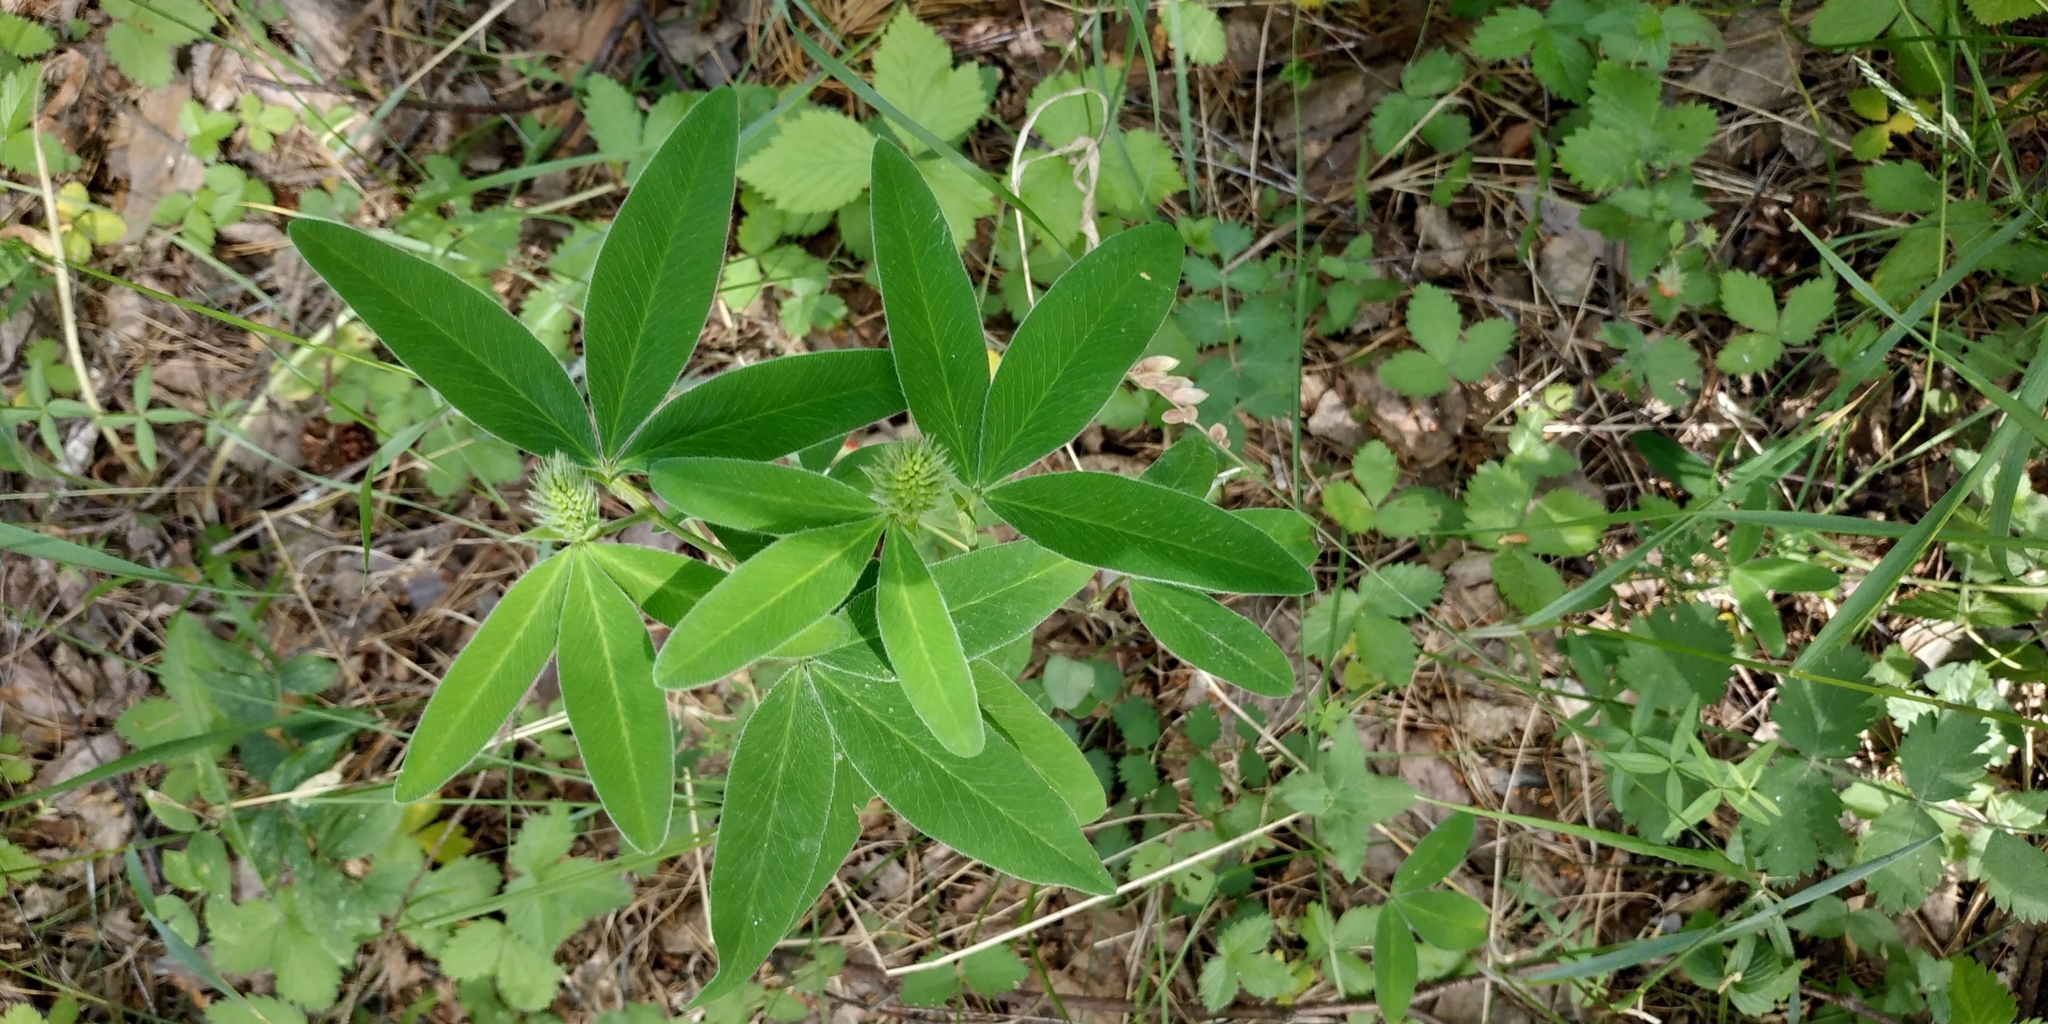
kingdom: Plantae
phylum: Tracheophyta
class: Magnoliopsida
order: Fabales
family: Fabaceae
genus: Trifolium
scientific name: Trifolium medium
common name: Zigzag clover
